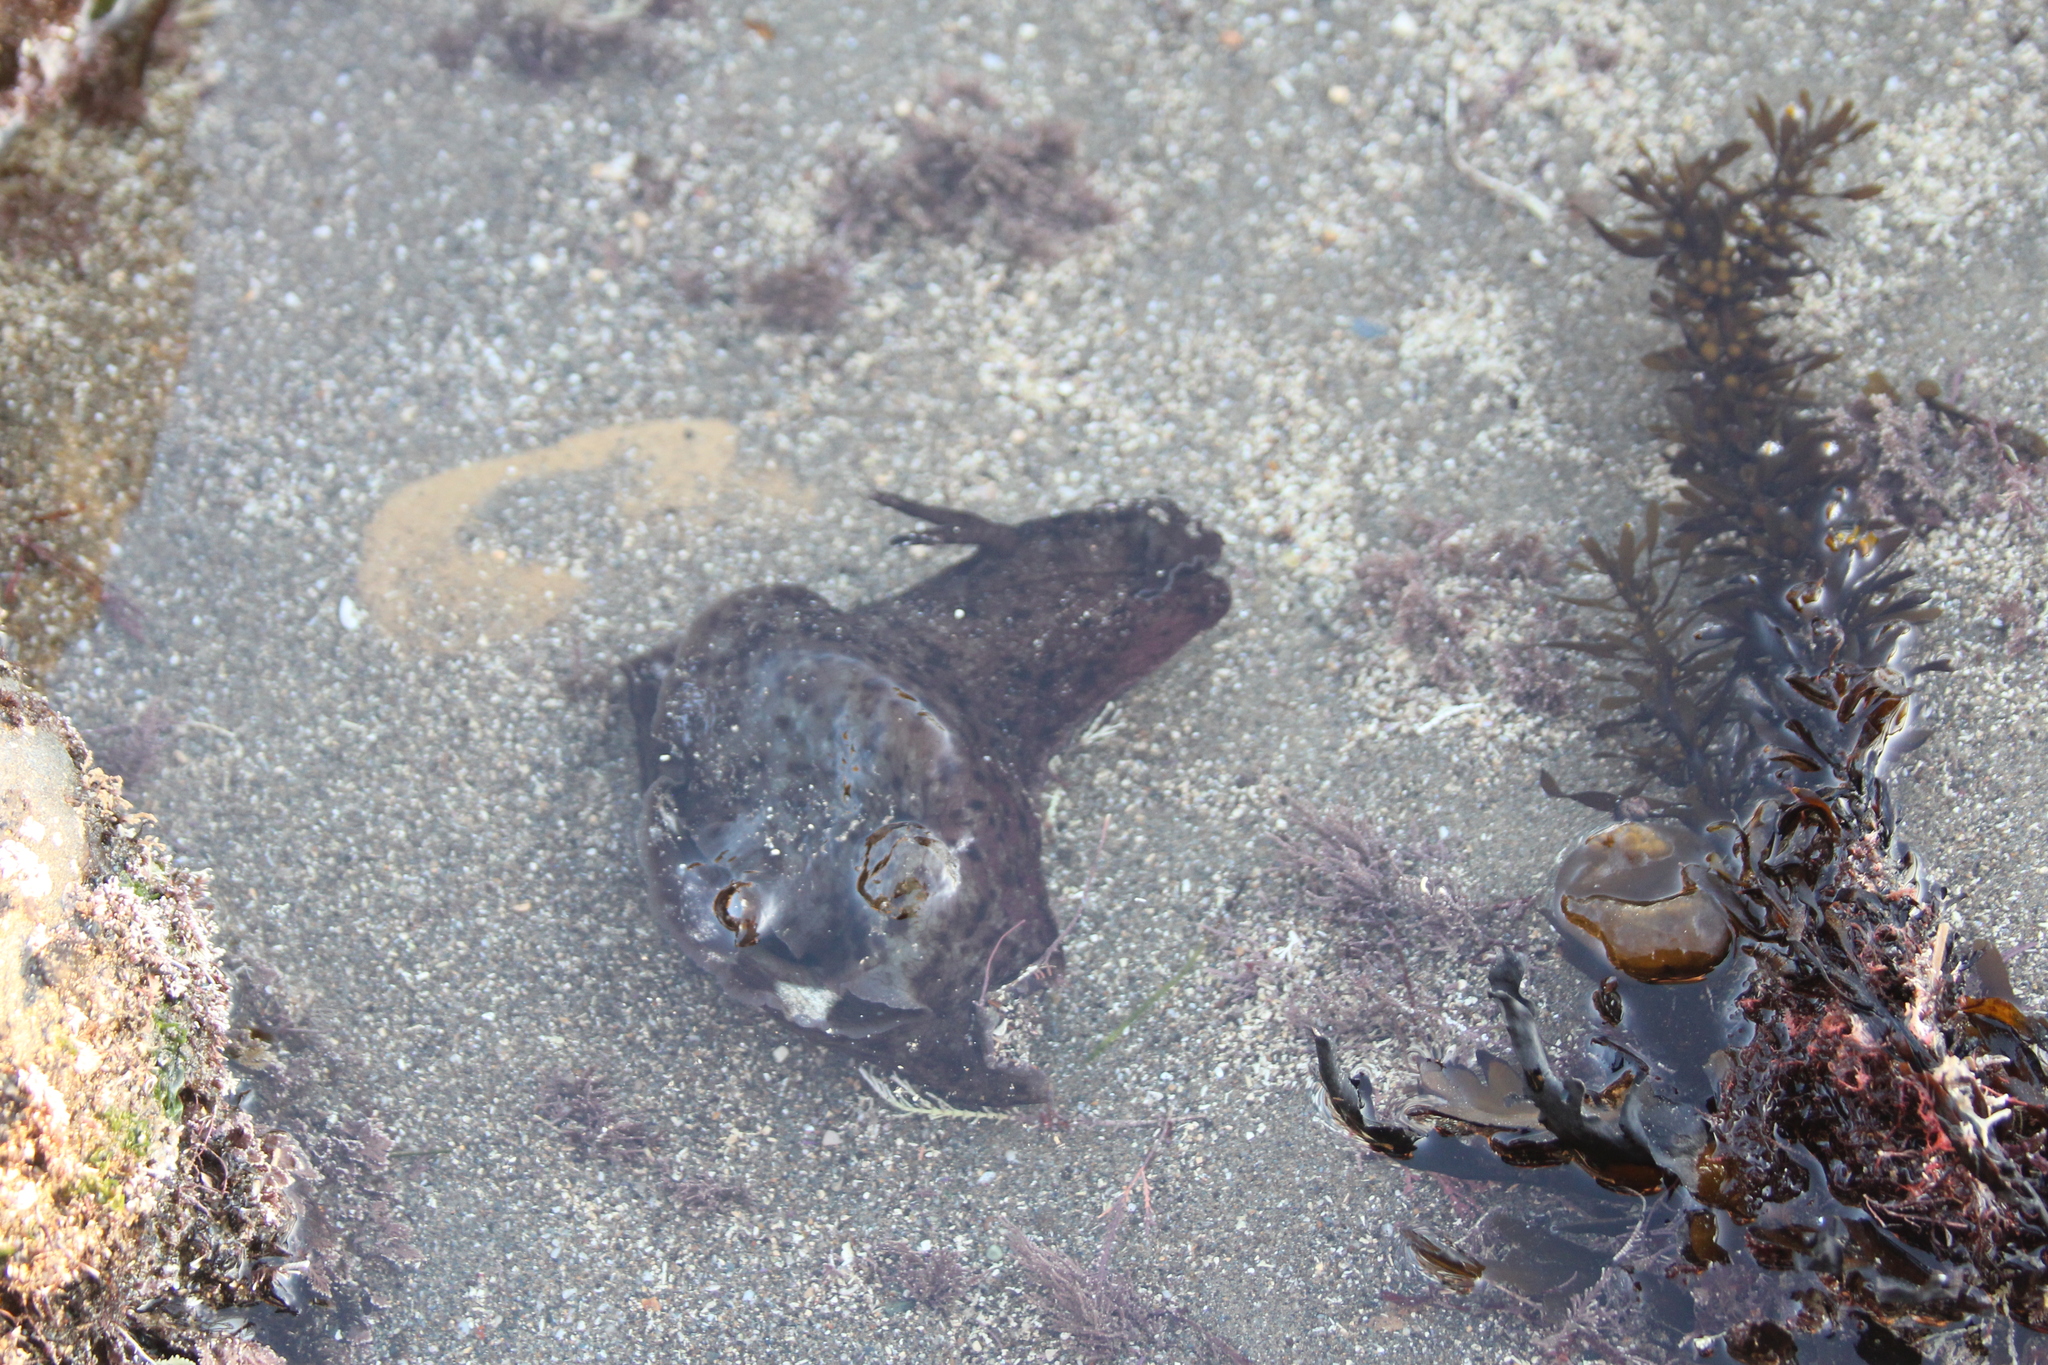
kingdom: Animalia
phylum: Mollusca
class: Gastropoda
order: Aplysiida
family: Aplysiidae
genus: Aplysia
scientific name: Aplysia californica
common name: California seahare
